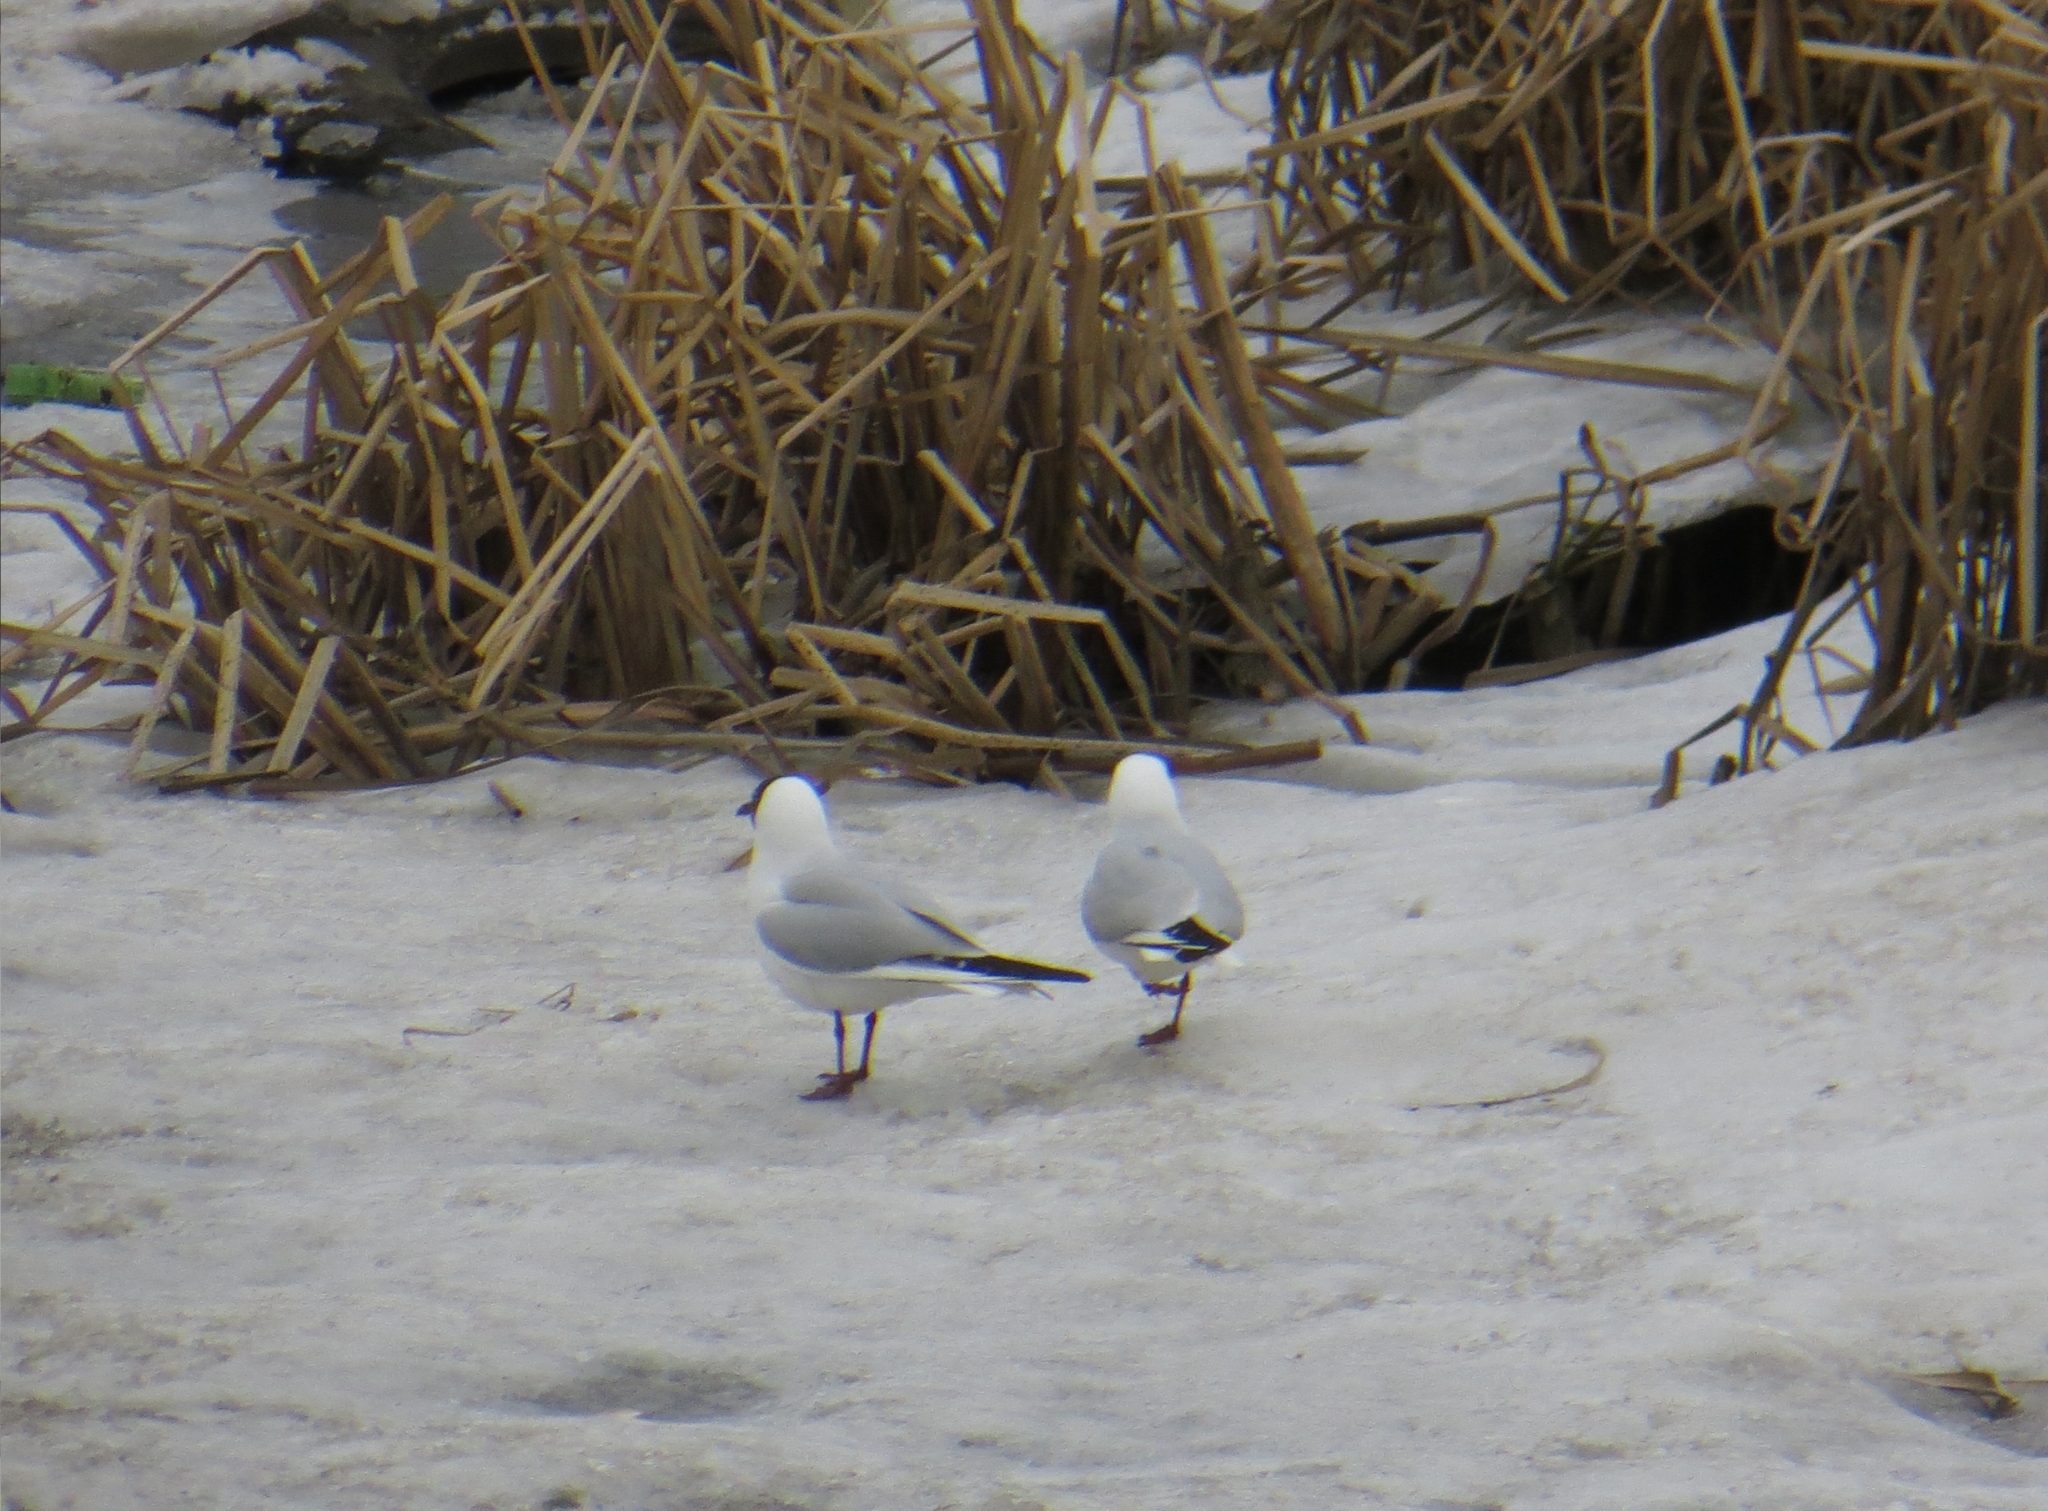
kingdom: Animalia
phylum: Chordata
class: Aves
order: Charadriiformes
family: Laridae
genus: Chroicocephalus
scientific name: Chroicocephalus ridibundus
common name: Black-headed gull
